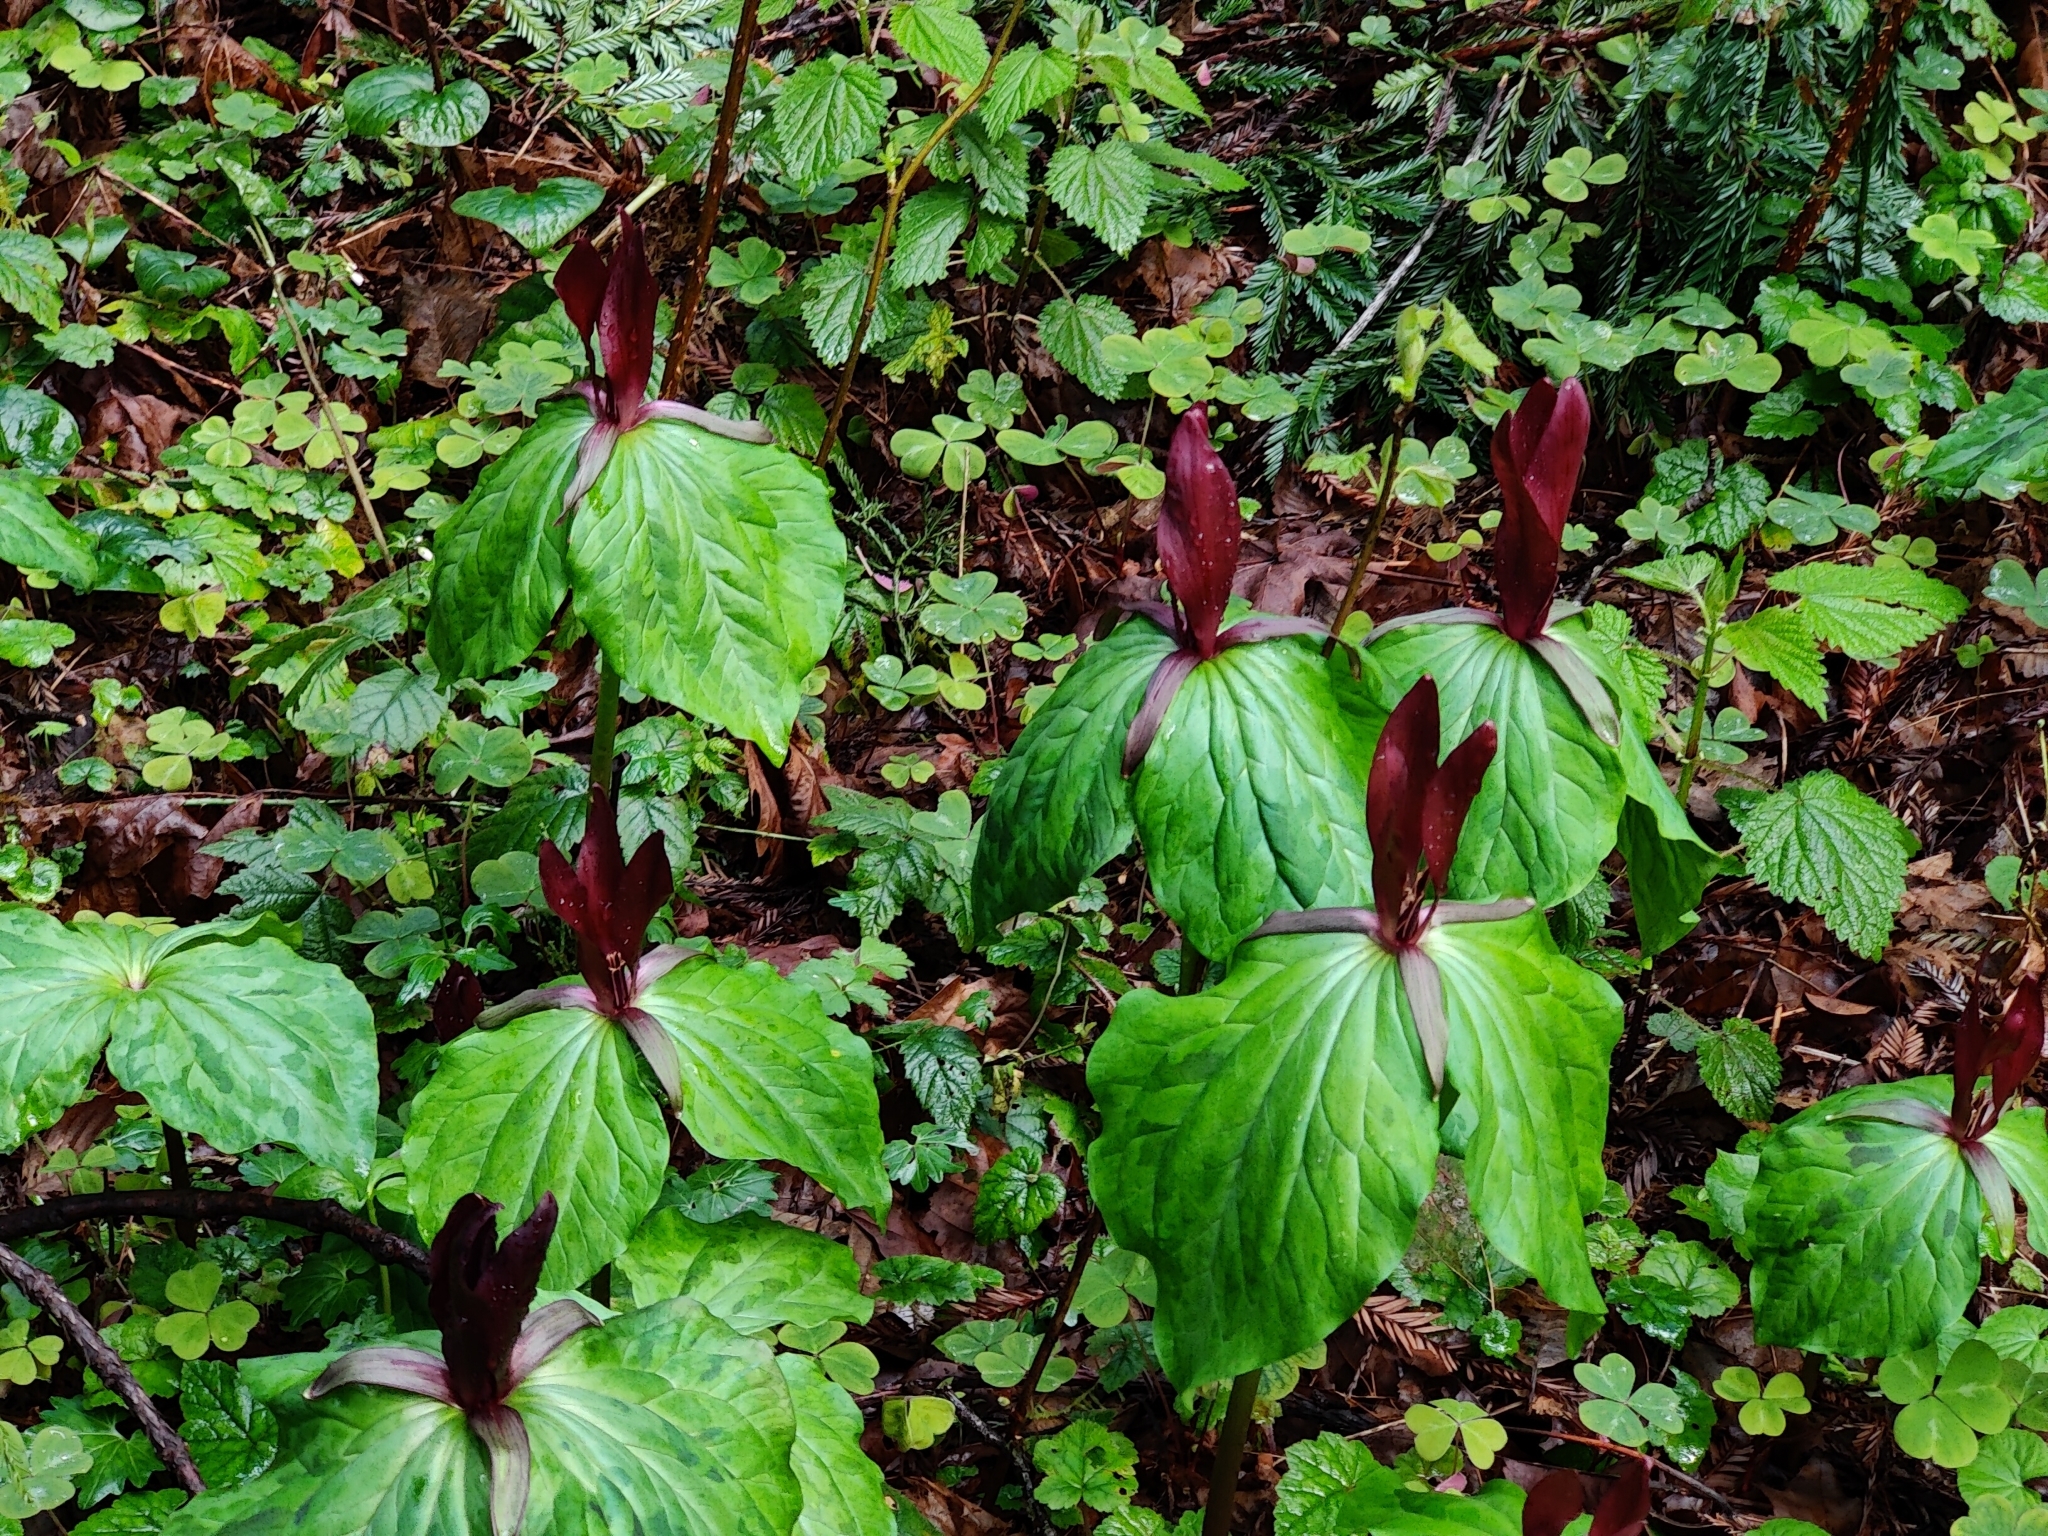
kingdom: Plantae
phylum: Tracheophyta
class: Liliopsida
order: Liliales
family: Melanthiaceae
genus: Trillium
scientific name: Trillium kurabayashii
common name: Giant purple trillium
